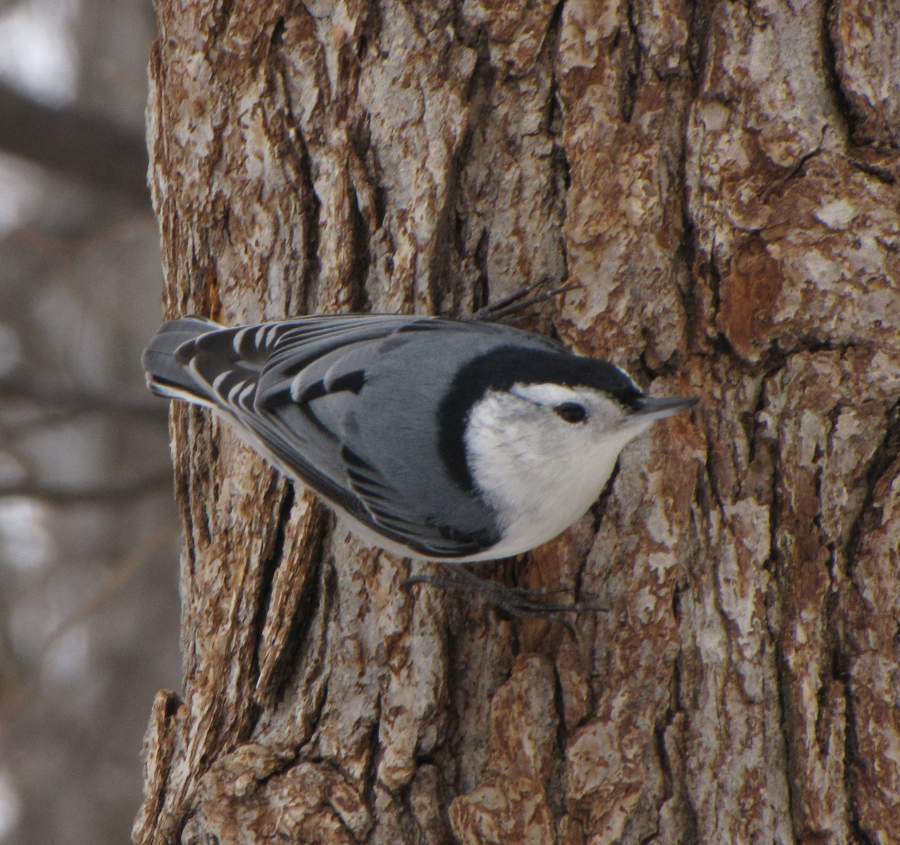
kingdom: Animalia
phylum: Chordata
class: Aves
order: Passeriformes
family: Sittidae
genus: Sitta
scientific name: Sitta carolinensis
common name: White-breasted nuthatch
